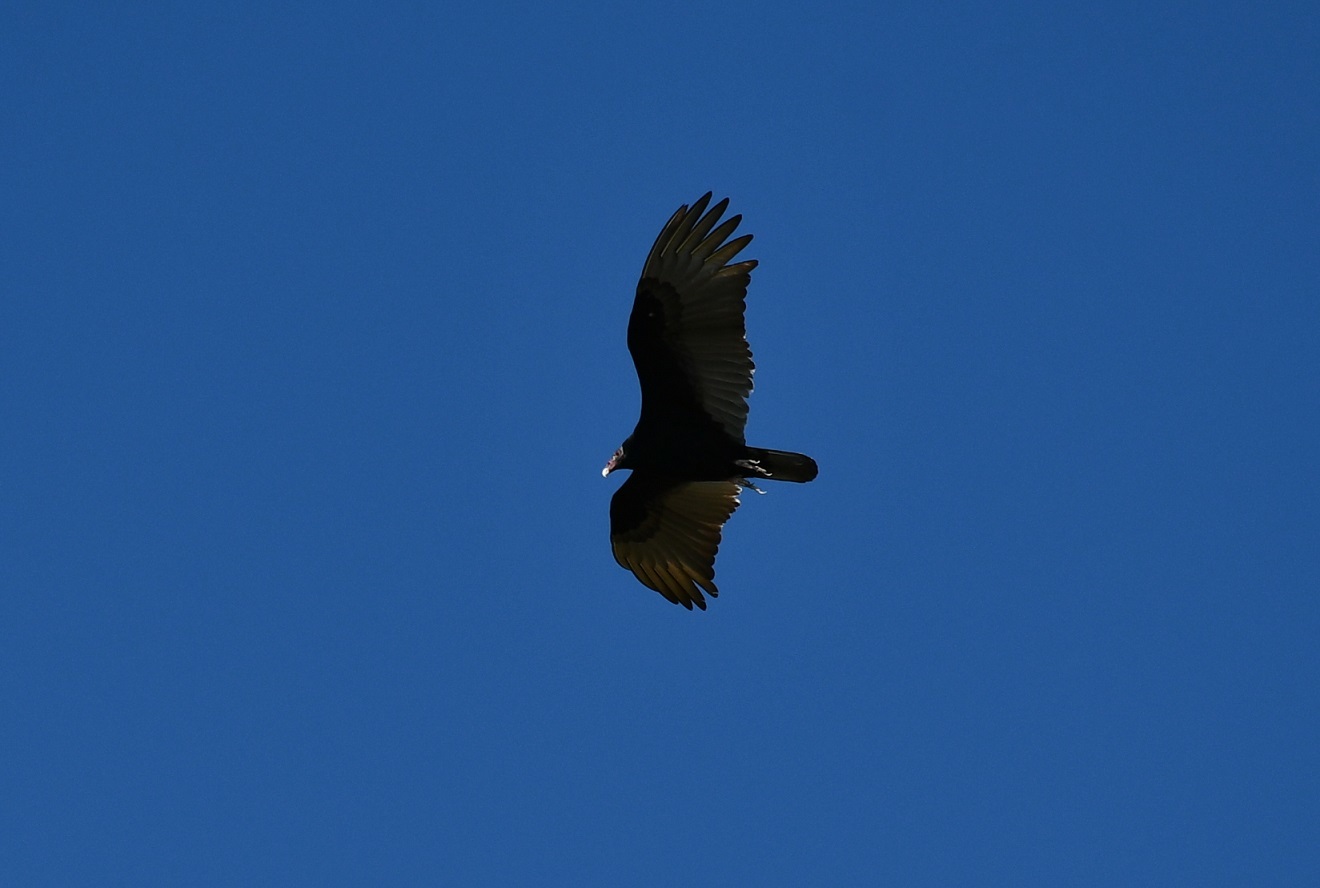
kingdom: Animalia
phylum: Chordata
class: Aves
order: Accipitriformes
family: Cathartidae
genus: Cathartes
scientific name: Cathartes aura
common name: Turkey vulture
